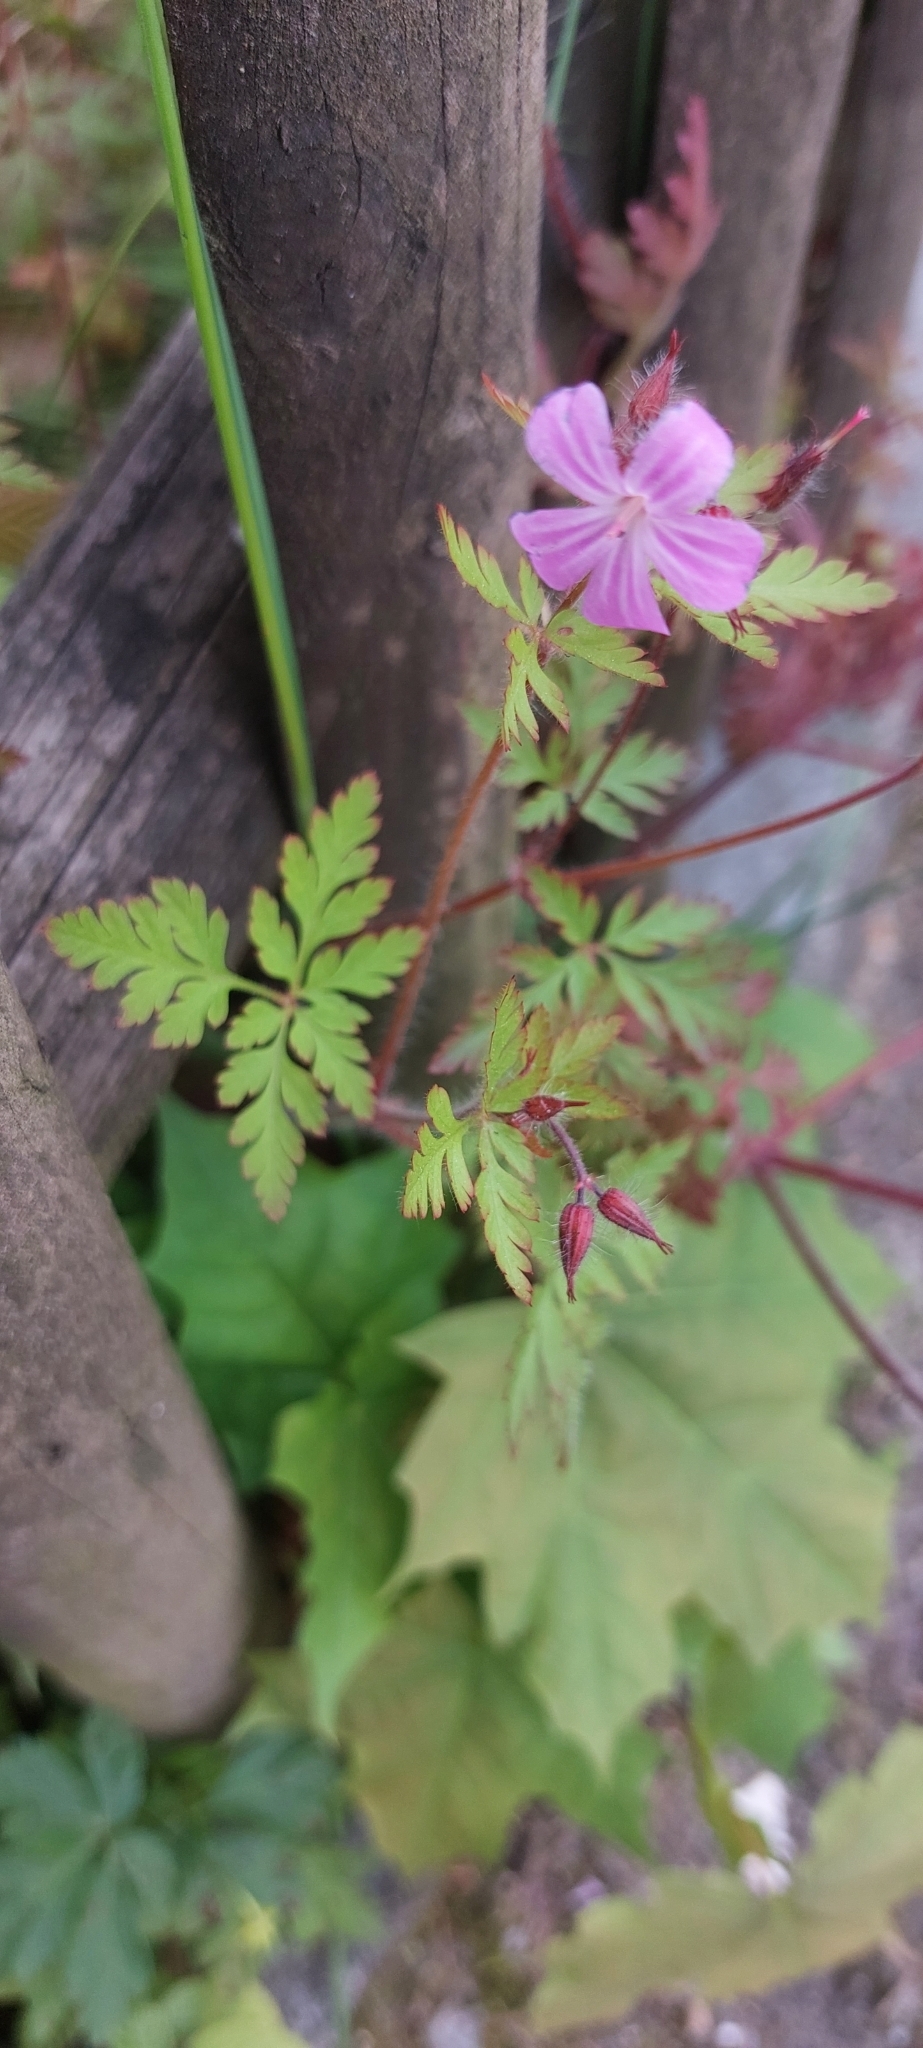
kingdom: Plantae
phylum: Tracheophyta
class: Magnoliopsida
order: Geraniales
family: Geraniaceae
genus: Geranium
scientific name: Geranium robertianum
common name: Herb-robert
